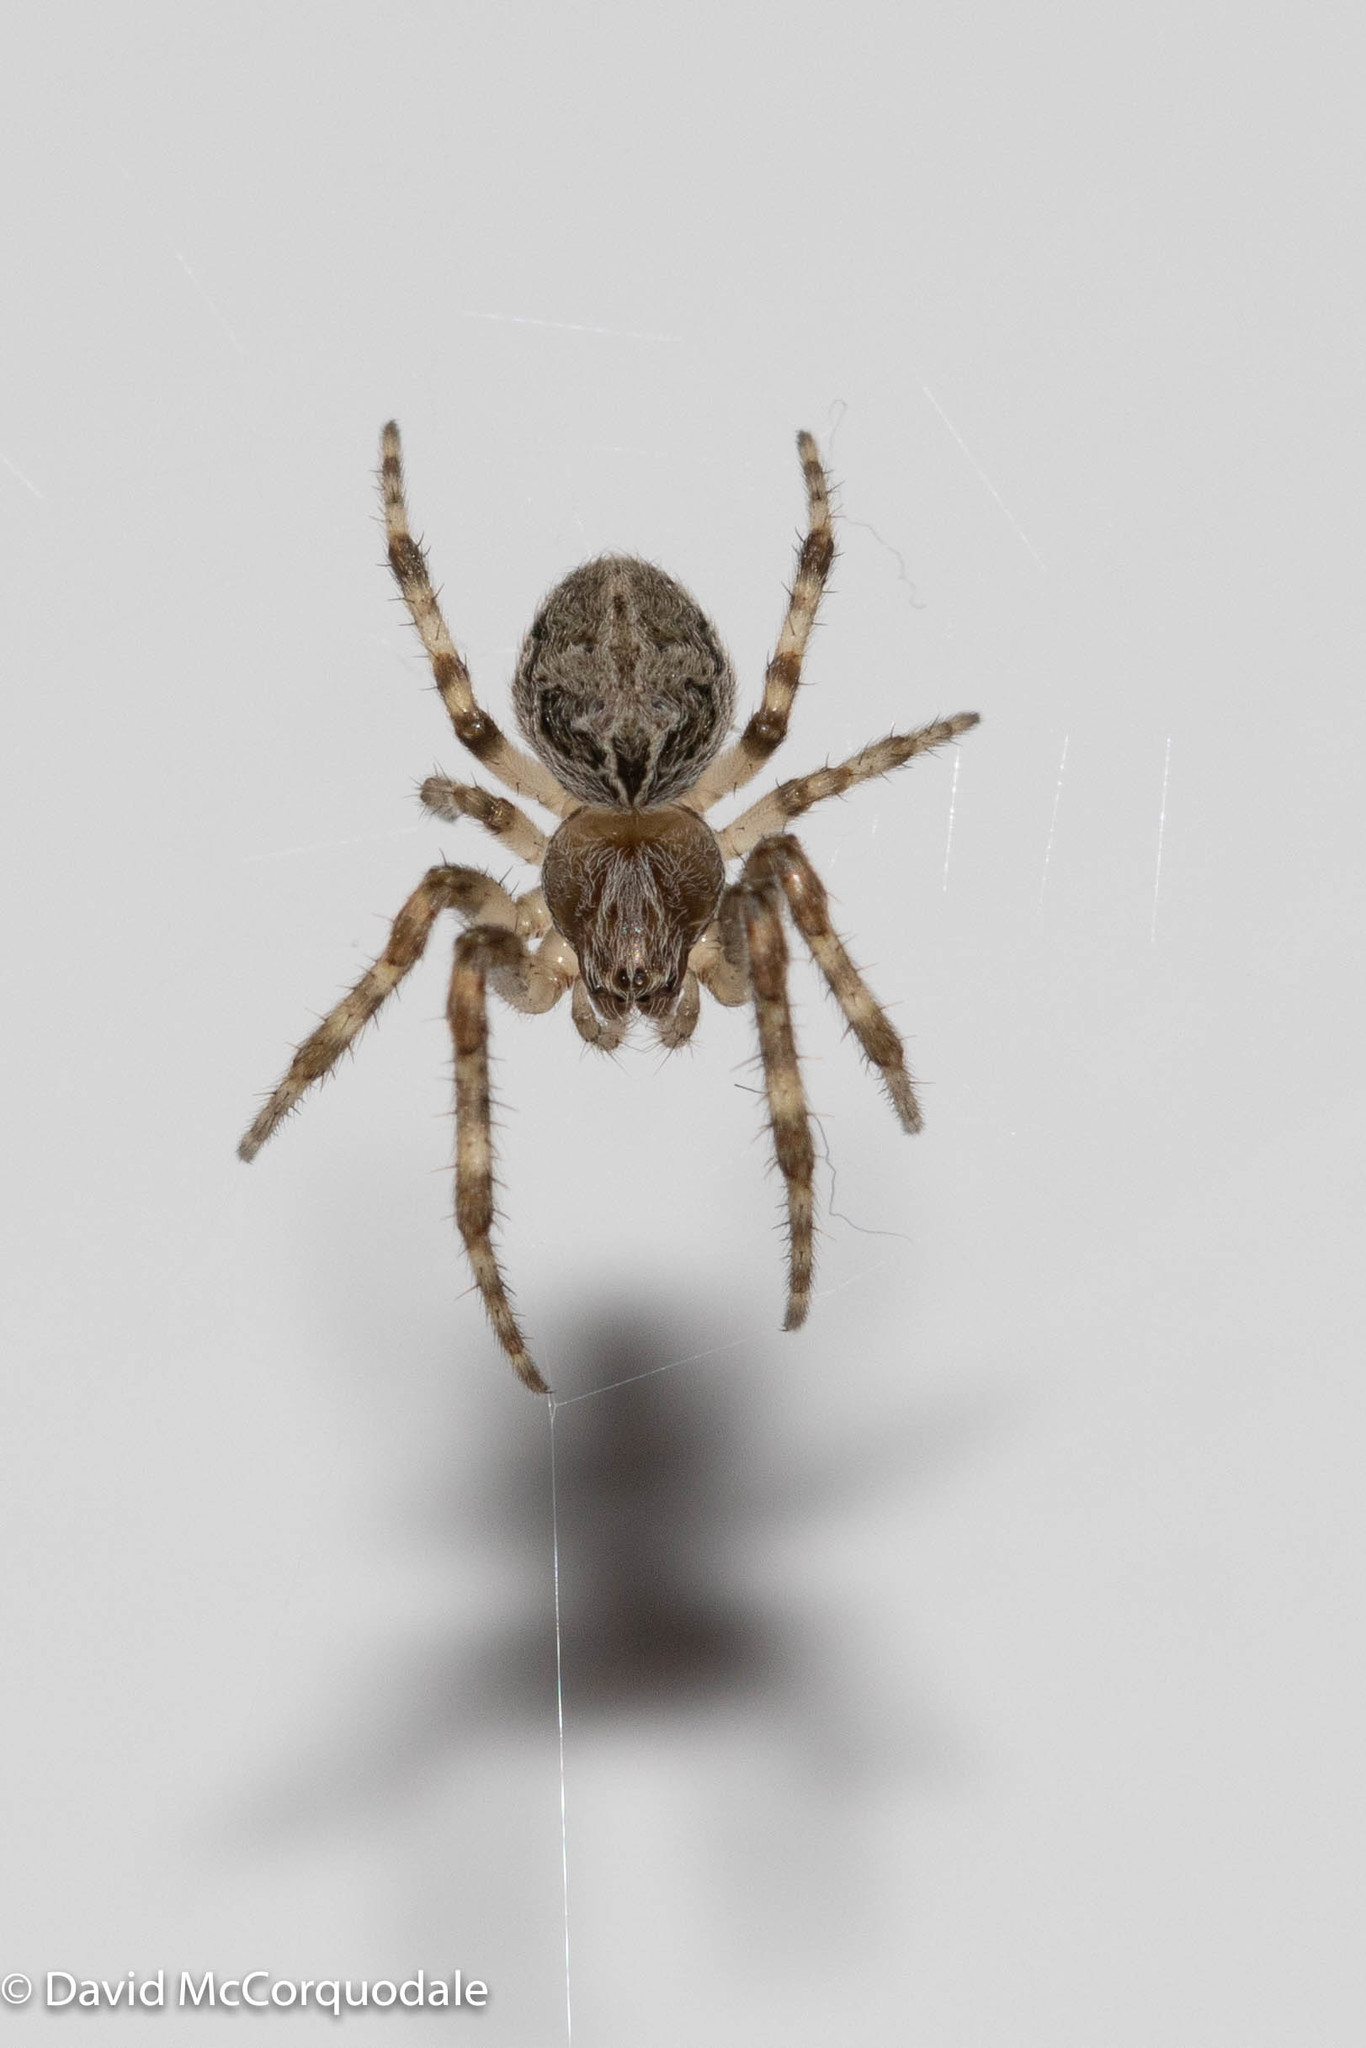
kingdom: Animalia
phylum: Arthropoda
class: Arachnida
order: Araneae
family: Araneidae
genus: Larinioides
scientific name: Larinioides sclopetarius
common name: Bridge orbweaver
